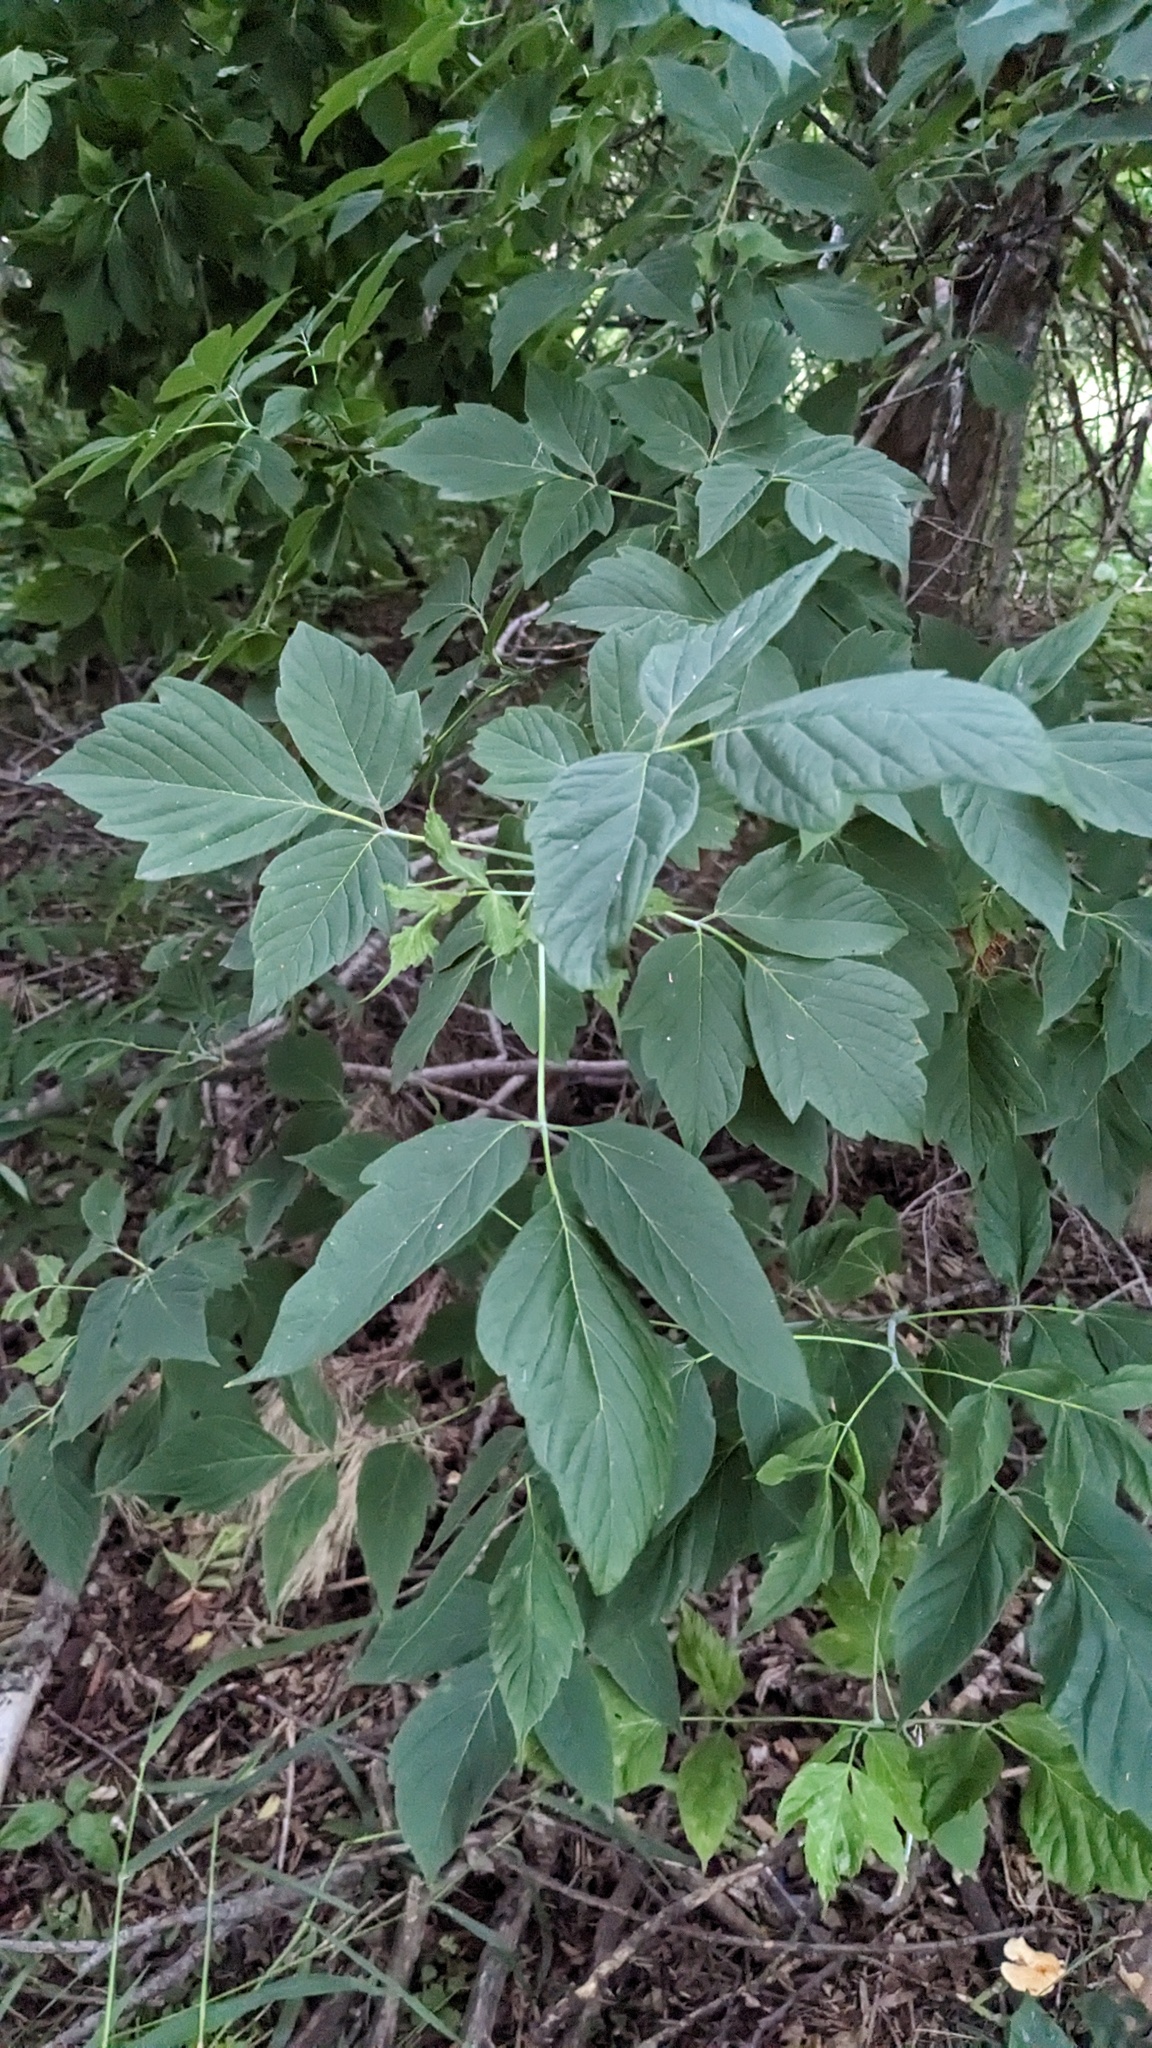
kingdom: Plantae
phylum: Tracheophyta
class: Magnoliopsida
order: Sapindales
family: Sapindaceae
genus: Acer
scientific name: Acer negundo
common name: Ashleaf maple
